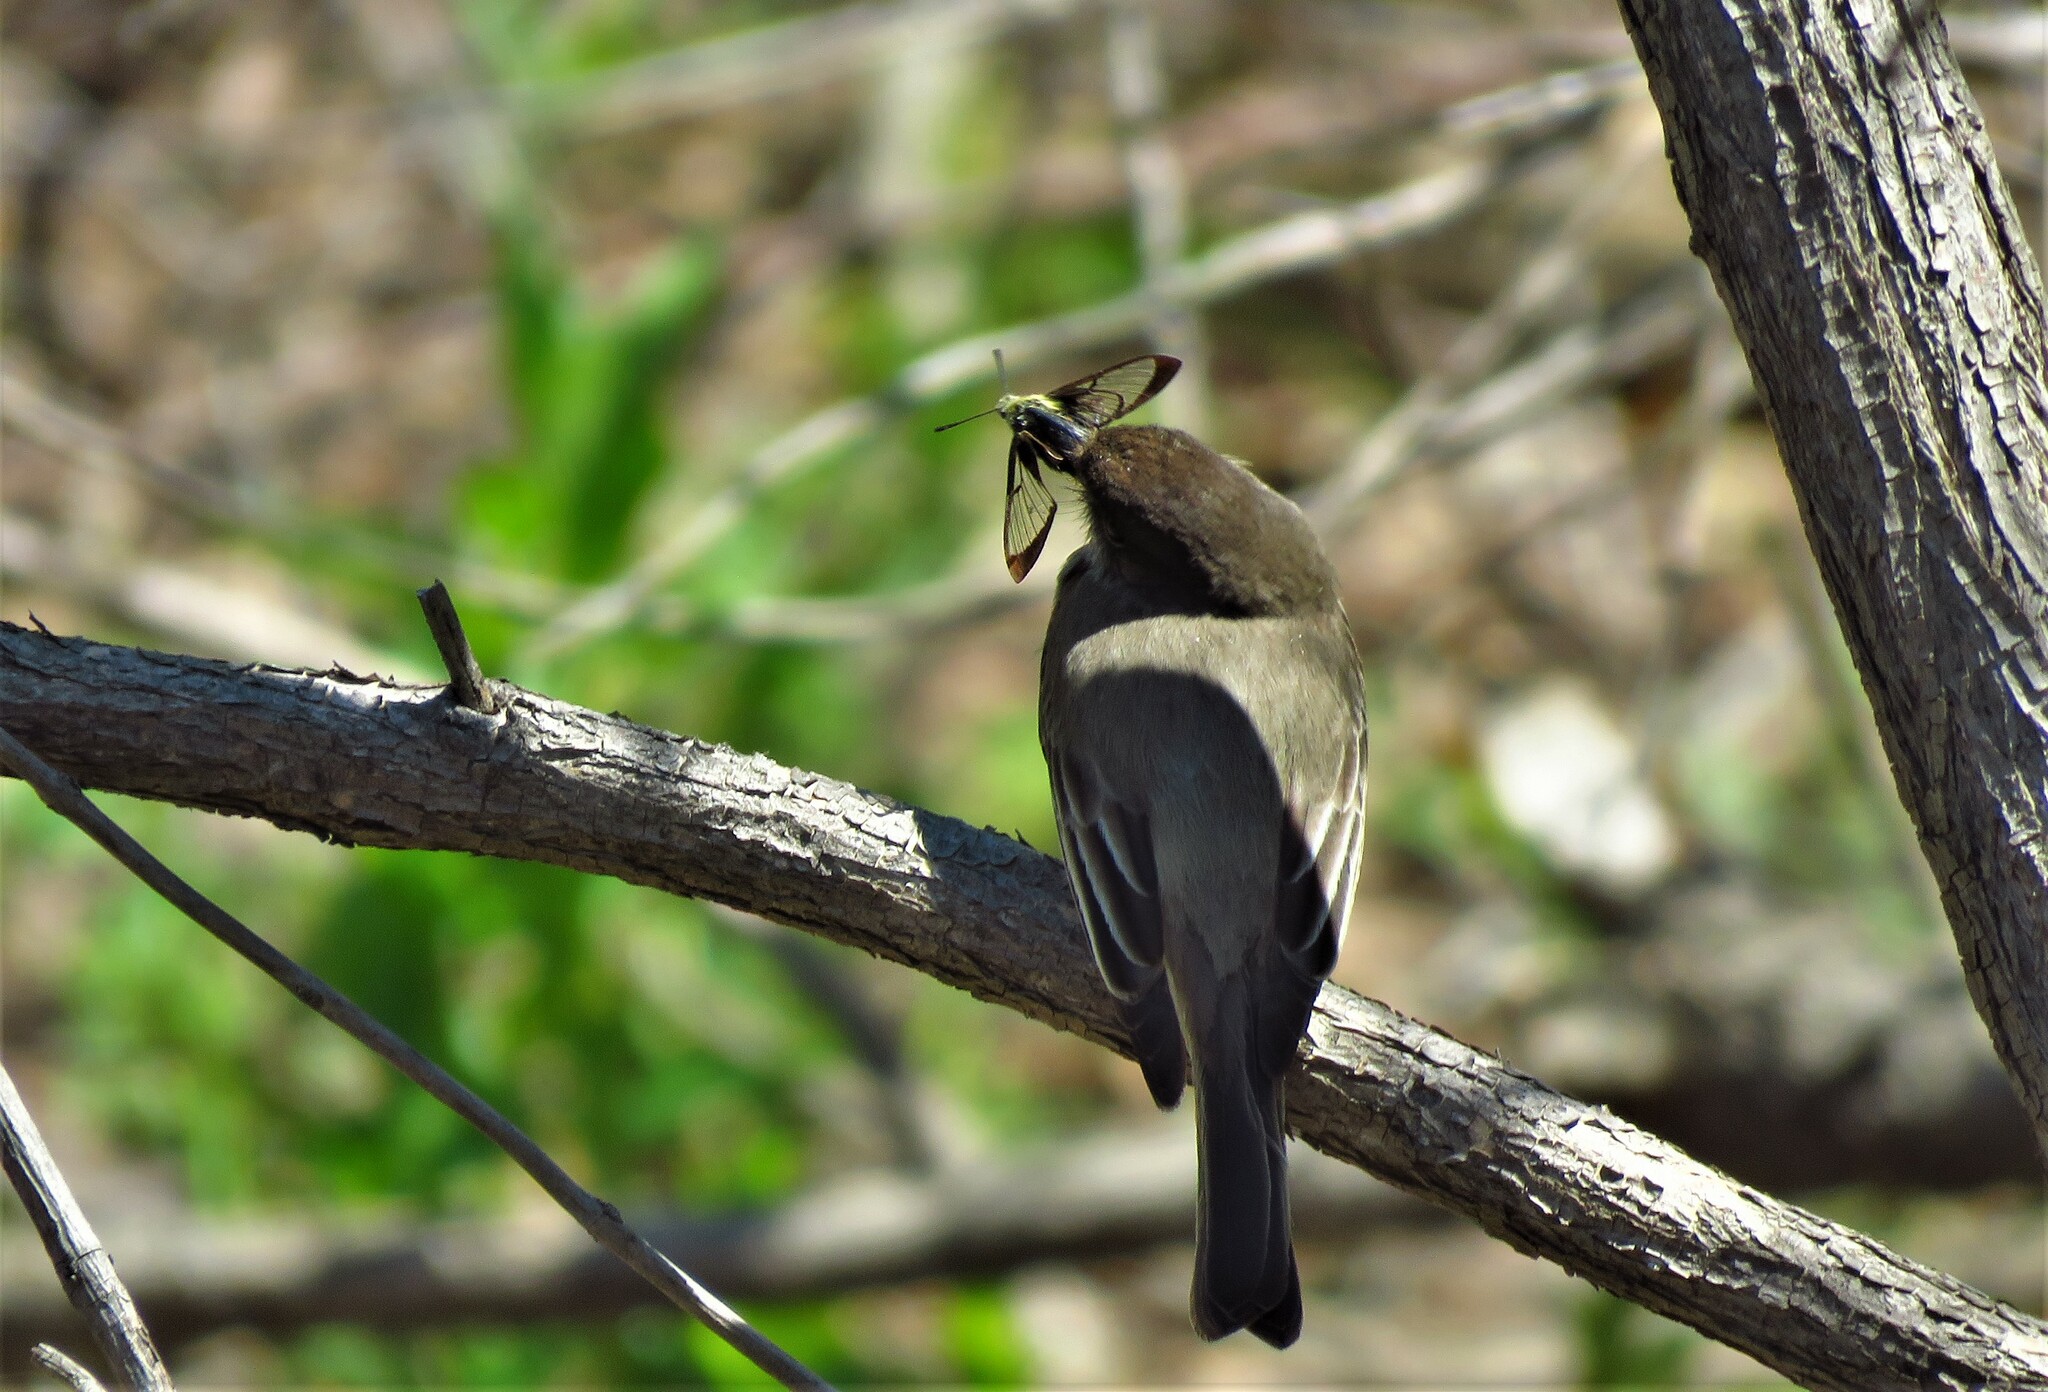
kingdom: Animalia
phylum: Chordata
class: Aves
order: Passeriformes
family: Tyrannidae
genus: Sayornis
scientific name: Sayornis phoebe
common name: Eastern phoebe
